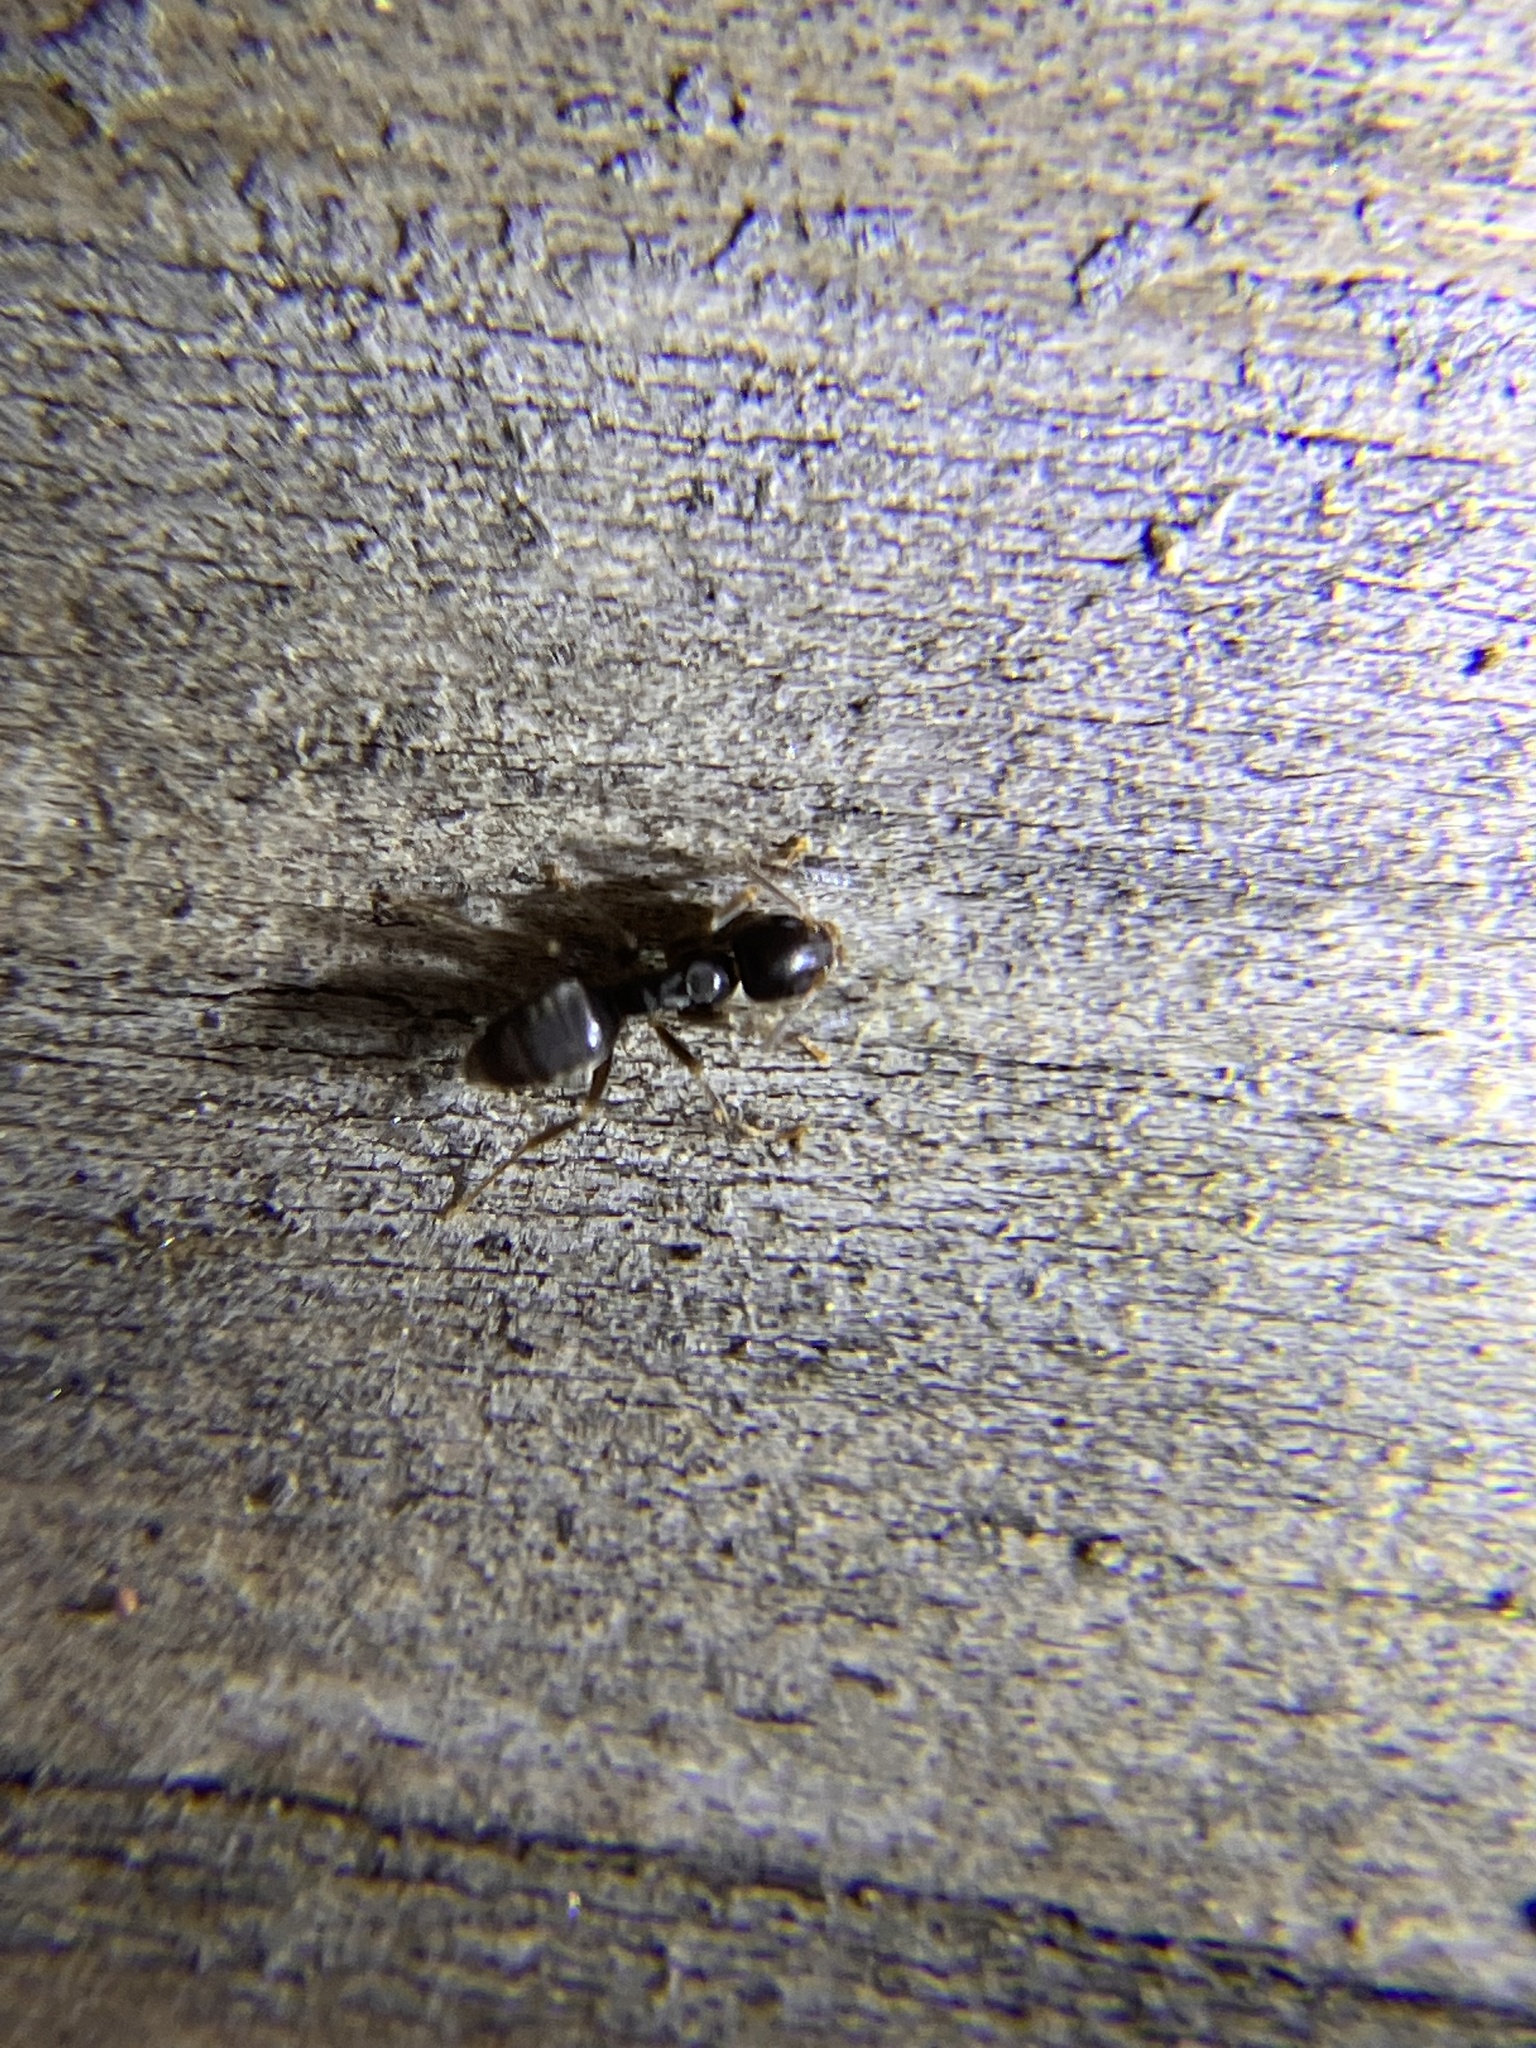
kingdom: Animalia
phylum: Arthropoda
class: Insecta
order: Hymenoptera
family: Formicidae
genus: Tapinoma
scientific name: Tapinoma sessile
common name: Odorous house ant
